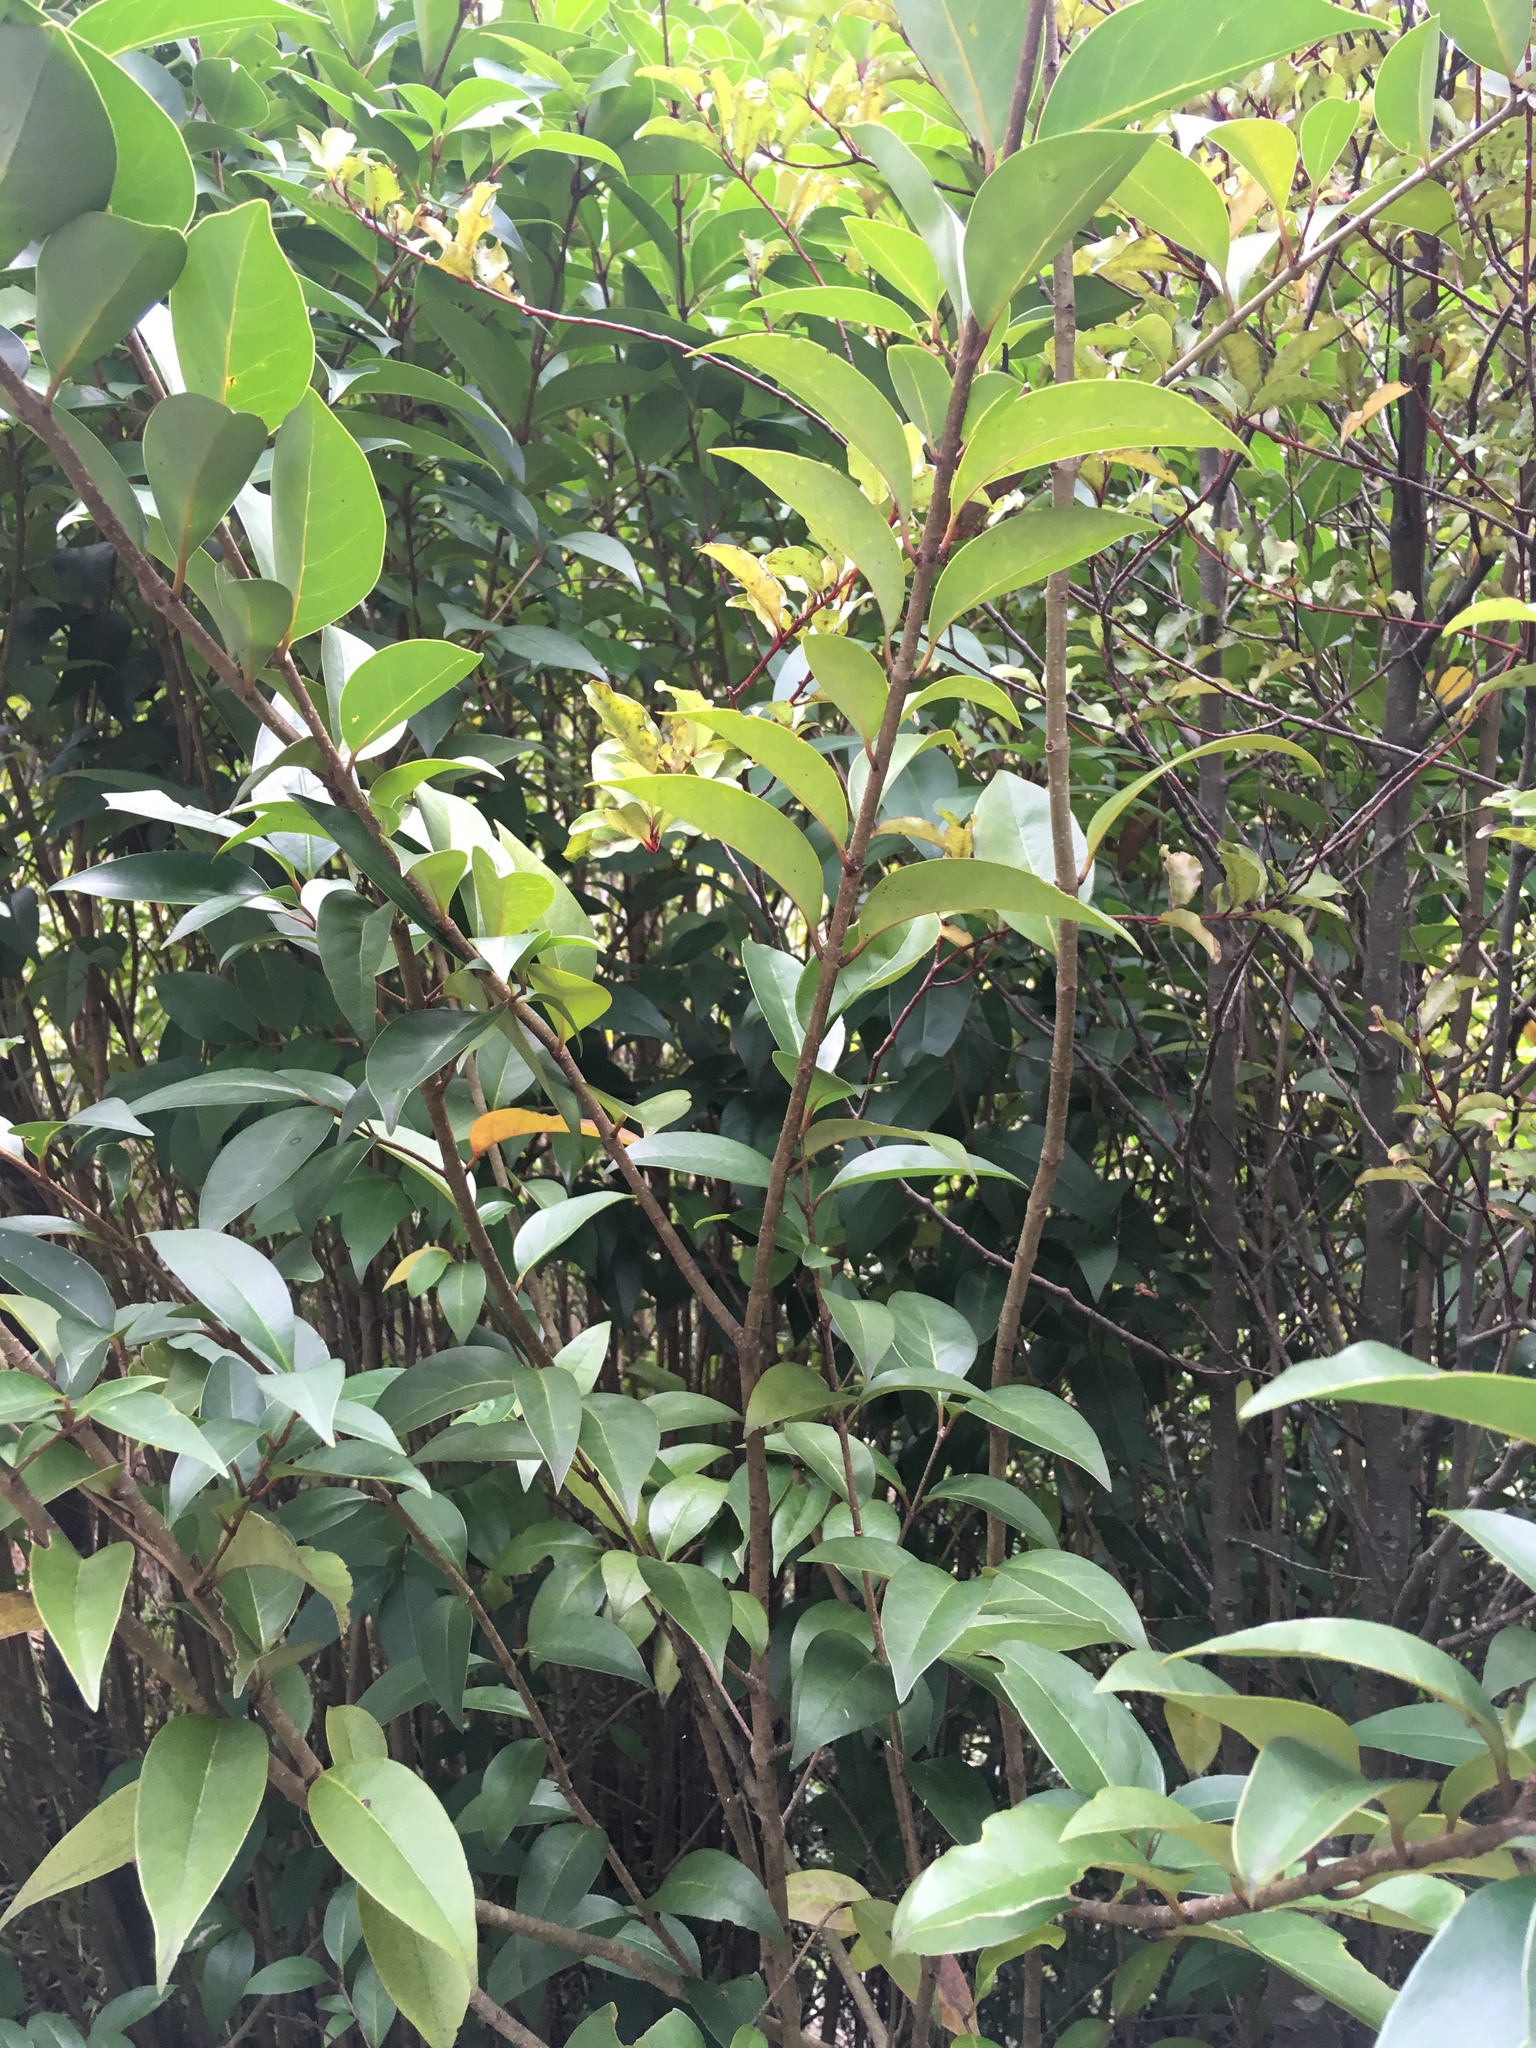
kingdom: Plantae
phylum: Tracheophyta
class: Magnoliopsida
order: Lamiales
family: Oleaceae
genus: Ligustrum
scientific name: Ligustrum lucidum
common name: Glossy privet
